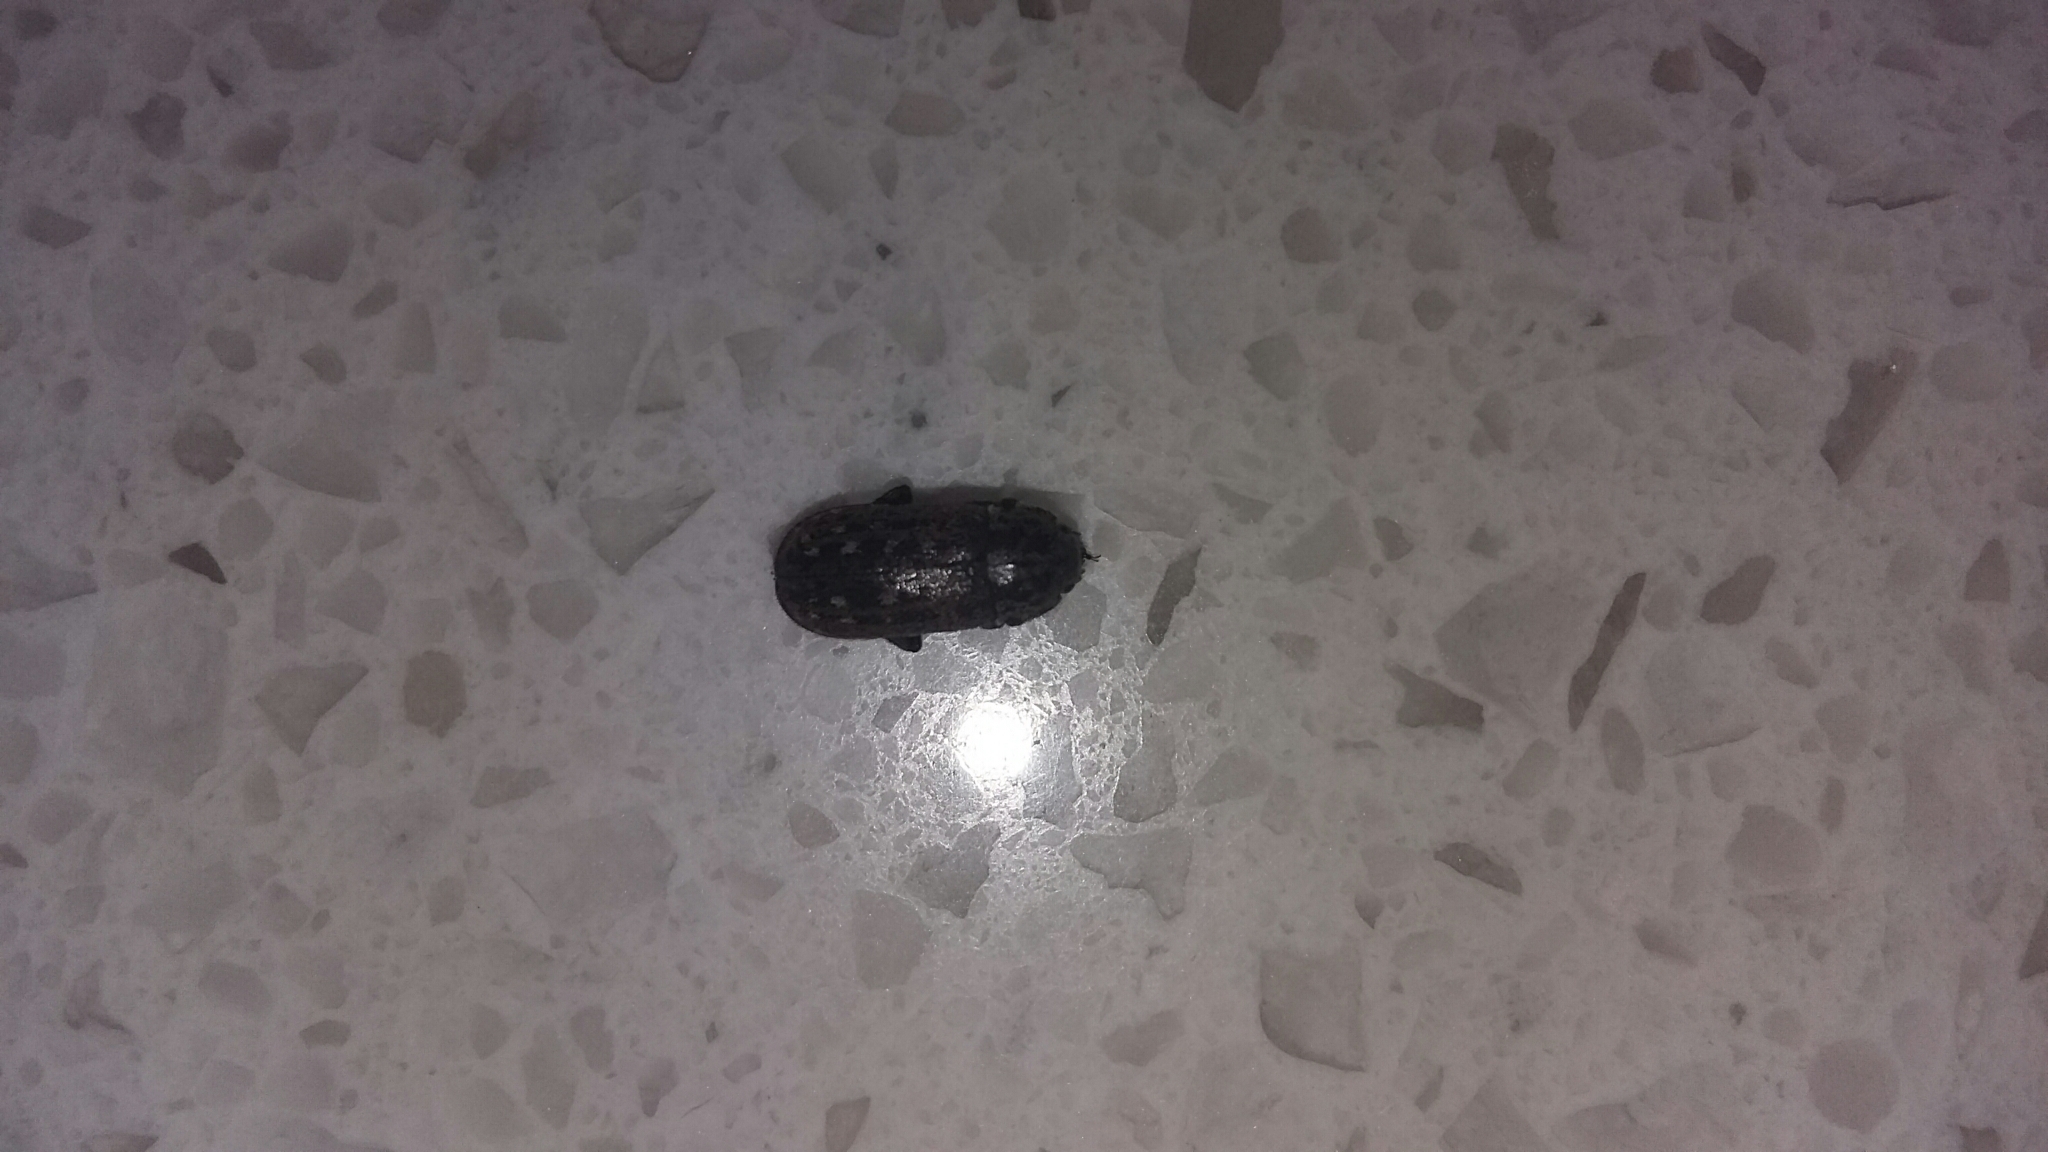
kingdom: Animalia
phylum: Arthropoda
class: Insecta
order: Coleoptera
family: Lucanidae
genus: Mitophyllus
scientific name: Mitophyllus irroratus
